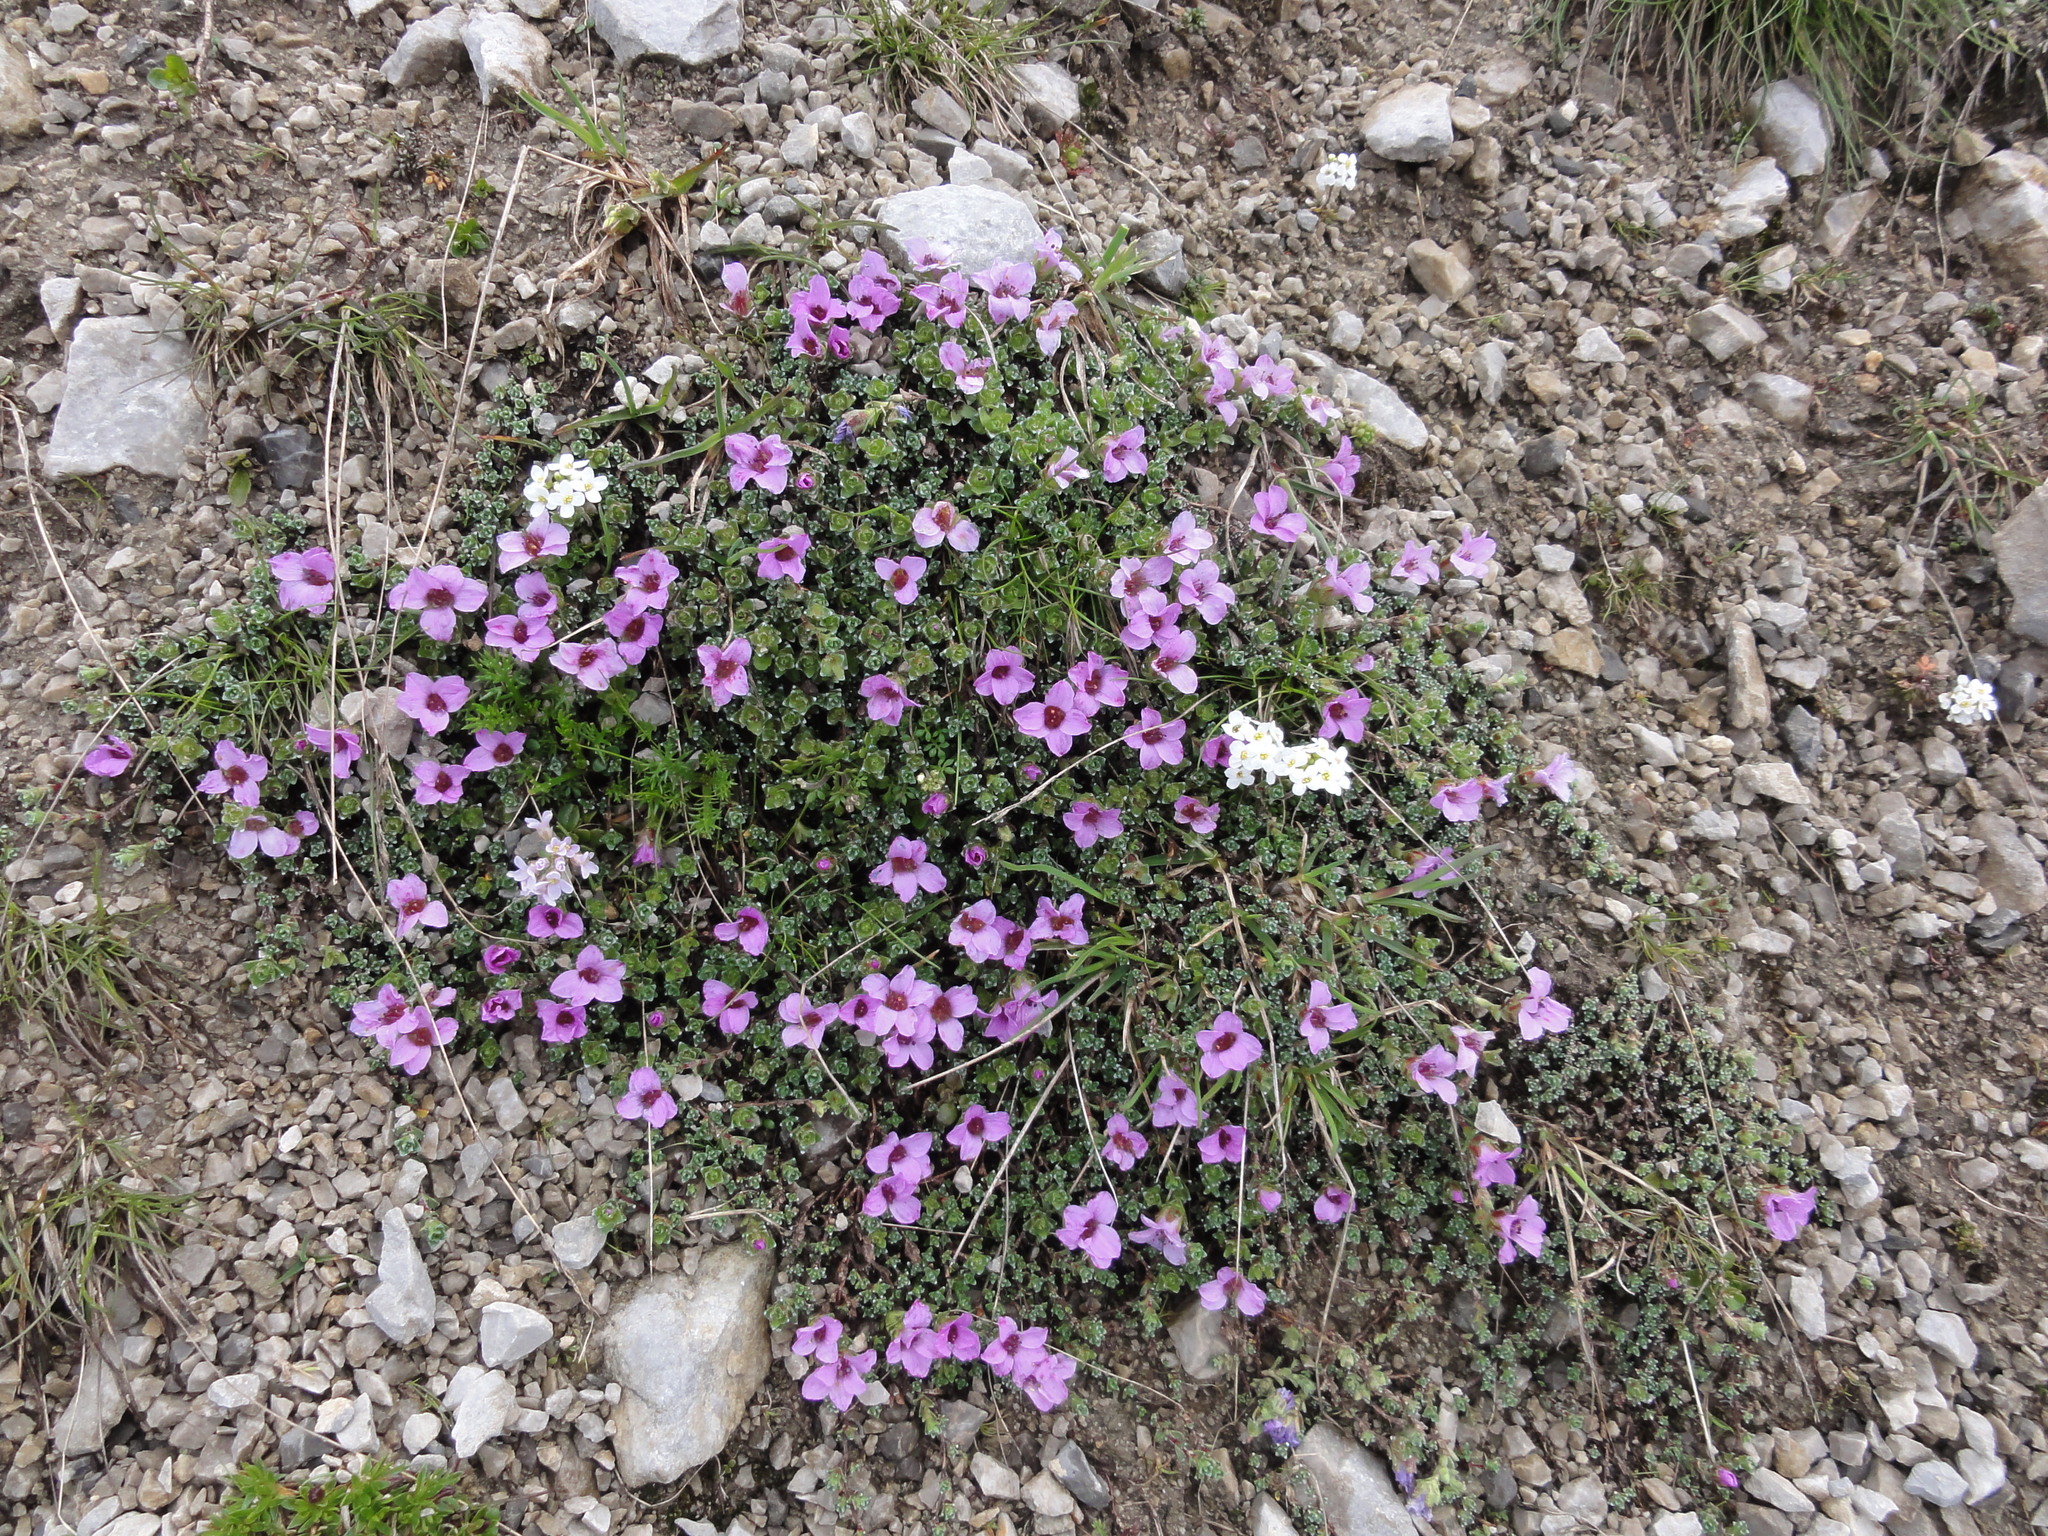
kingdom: Plantae
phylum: Tracheophyta
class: Magnoliopsida
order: Saxifragales
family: Saxifragaceae
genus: Saxifraga
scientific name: Saxifraga oppositifolia
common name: Purple saxifrage
